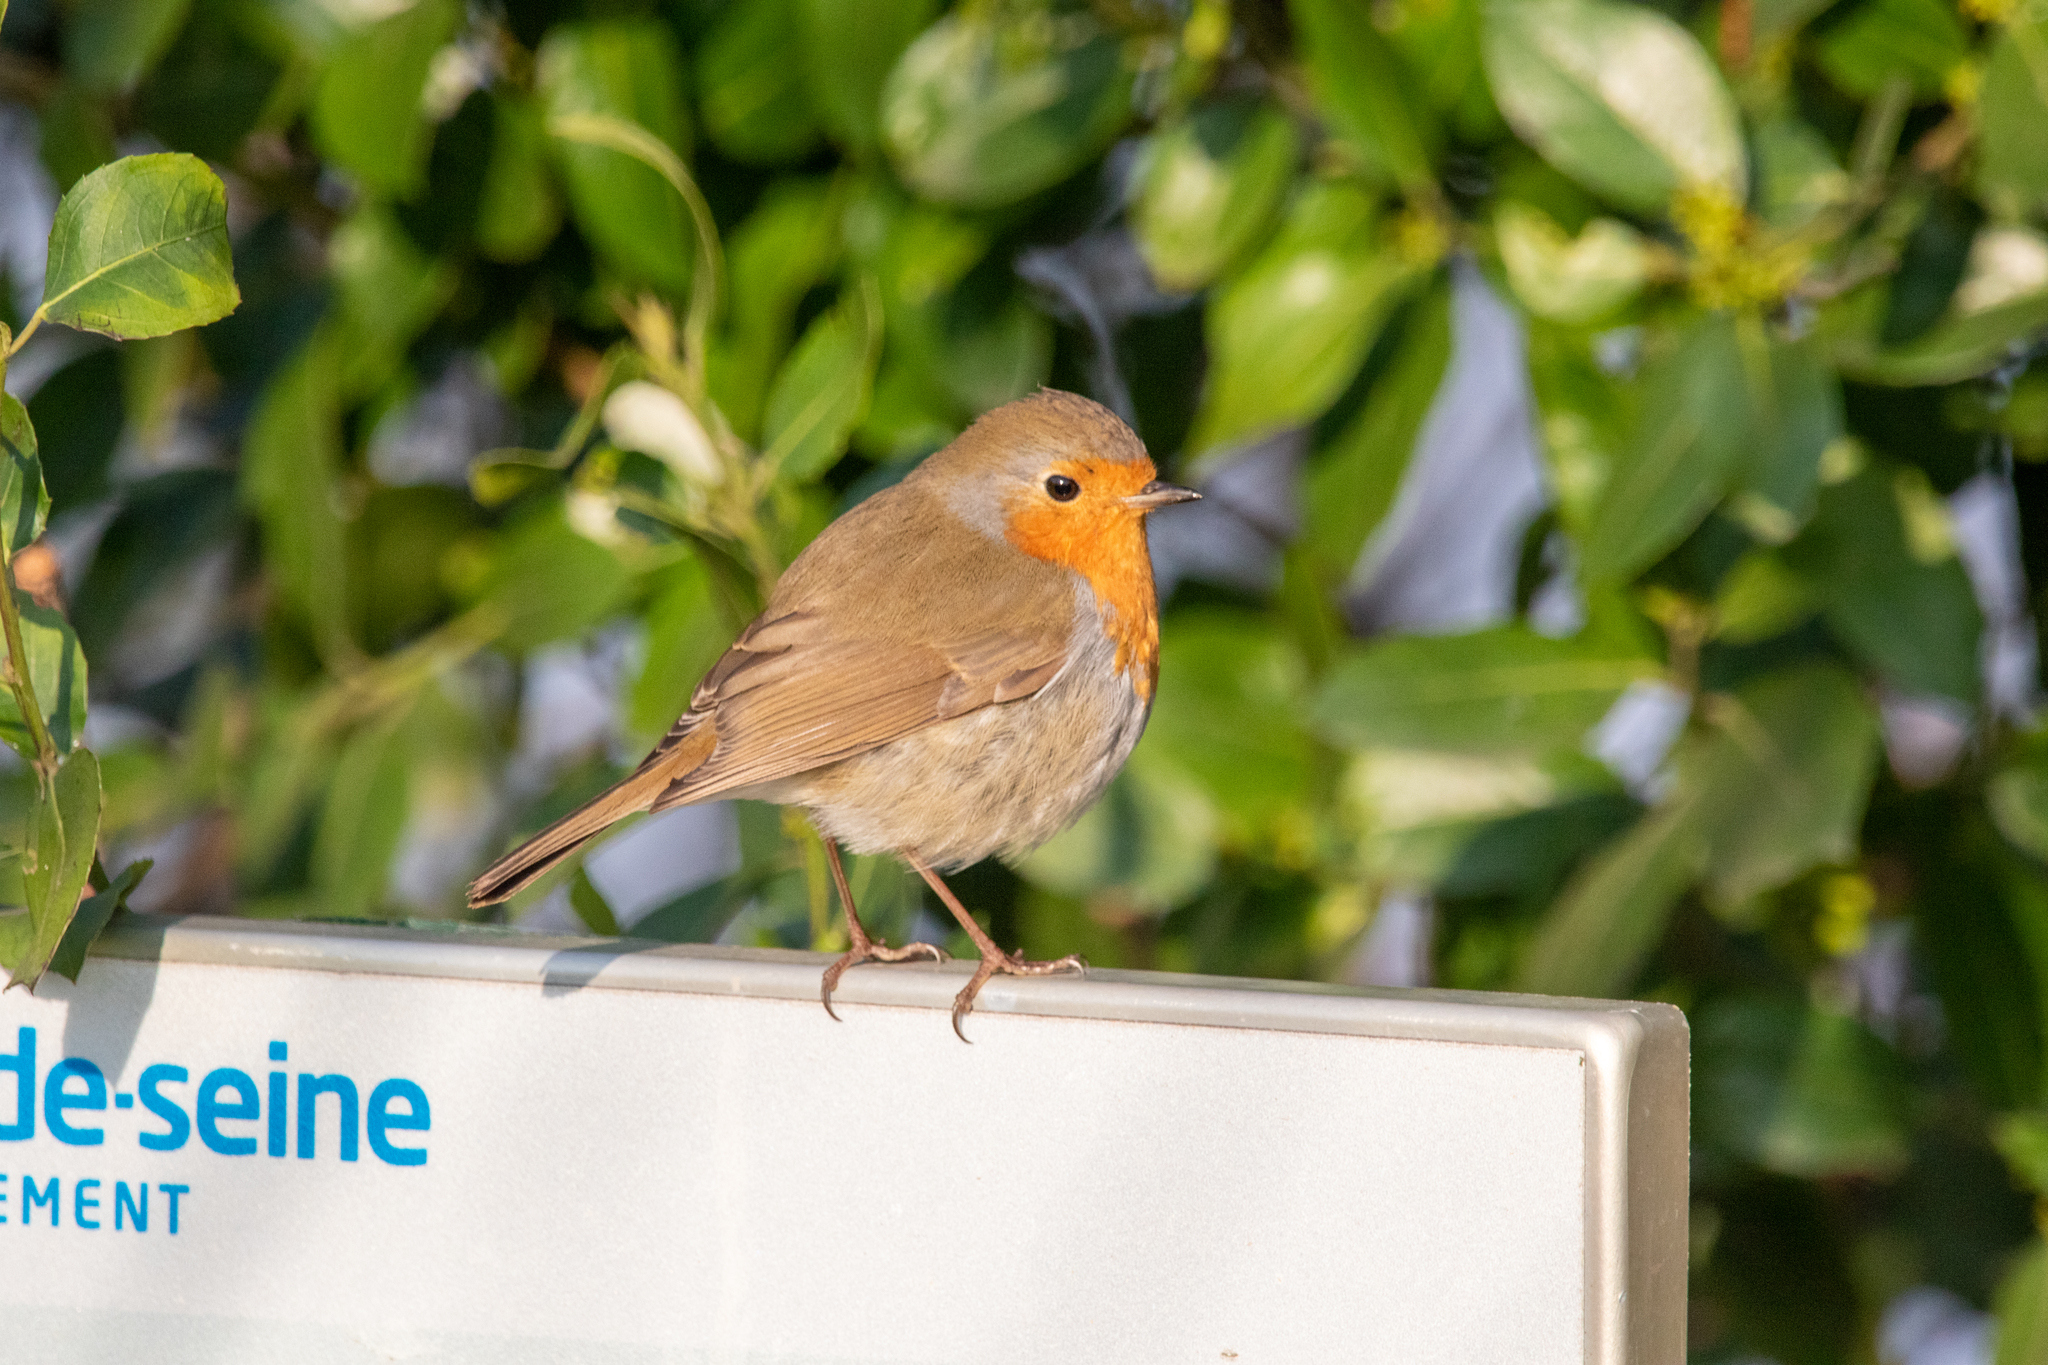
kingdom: Animalia
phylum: Chordata
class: Aves
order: Passeriformes
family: Muscicapidae
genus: Erithacus
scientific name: Erithacus rubecula
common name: European robin
